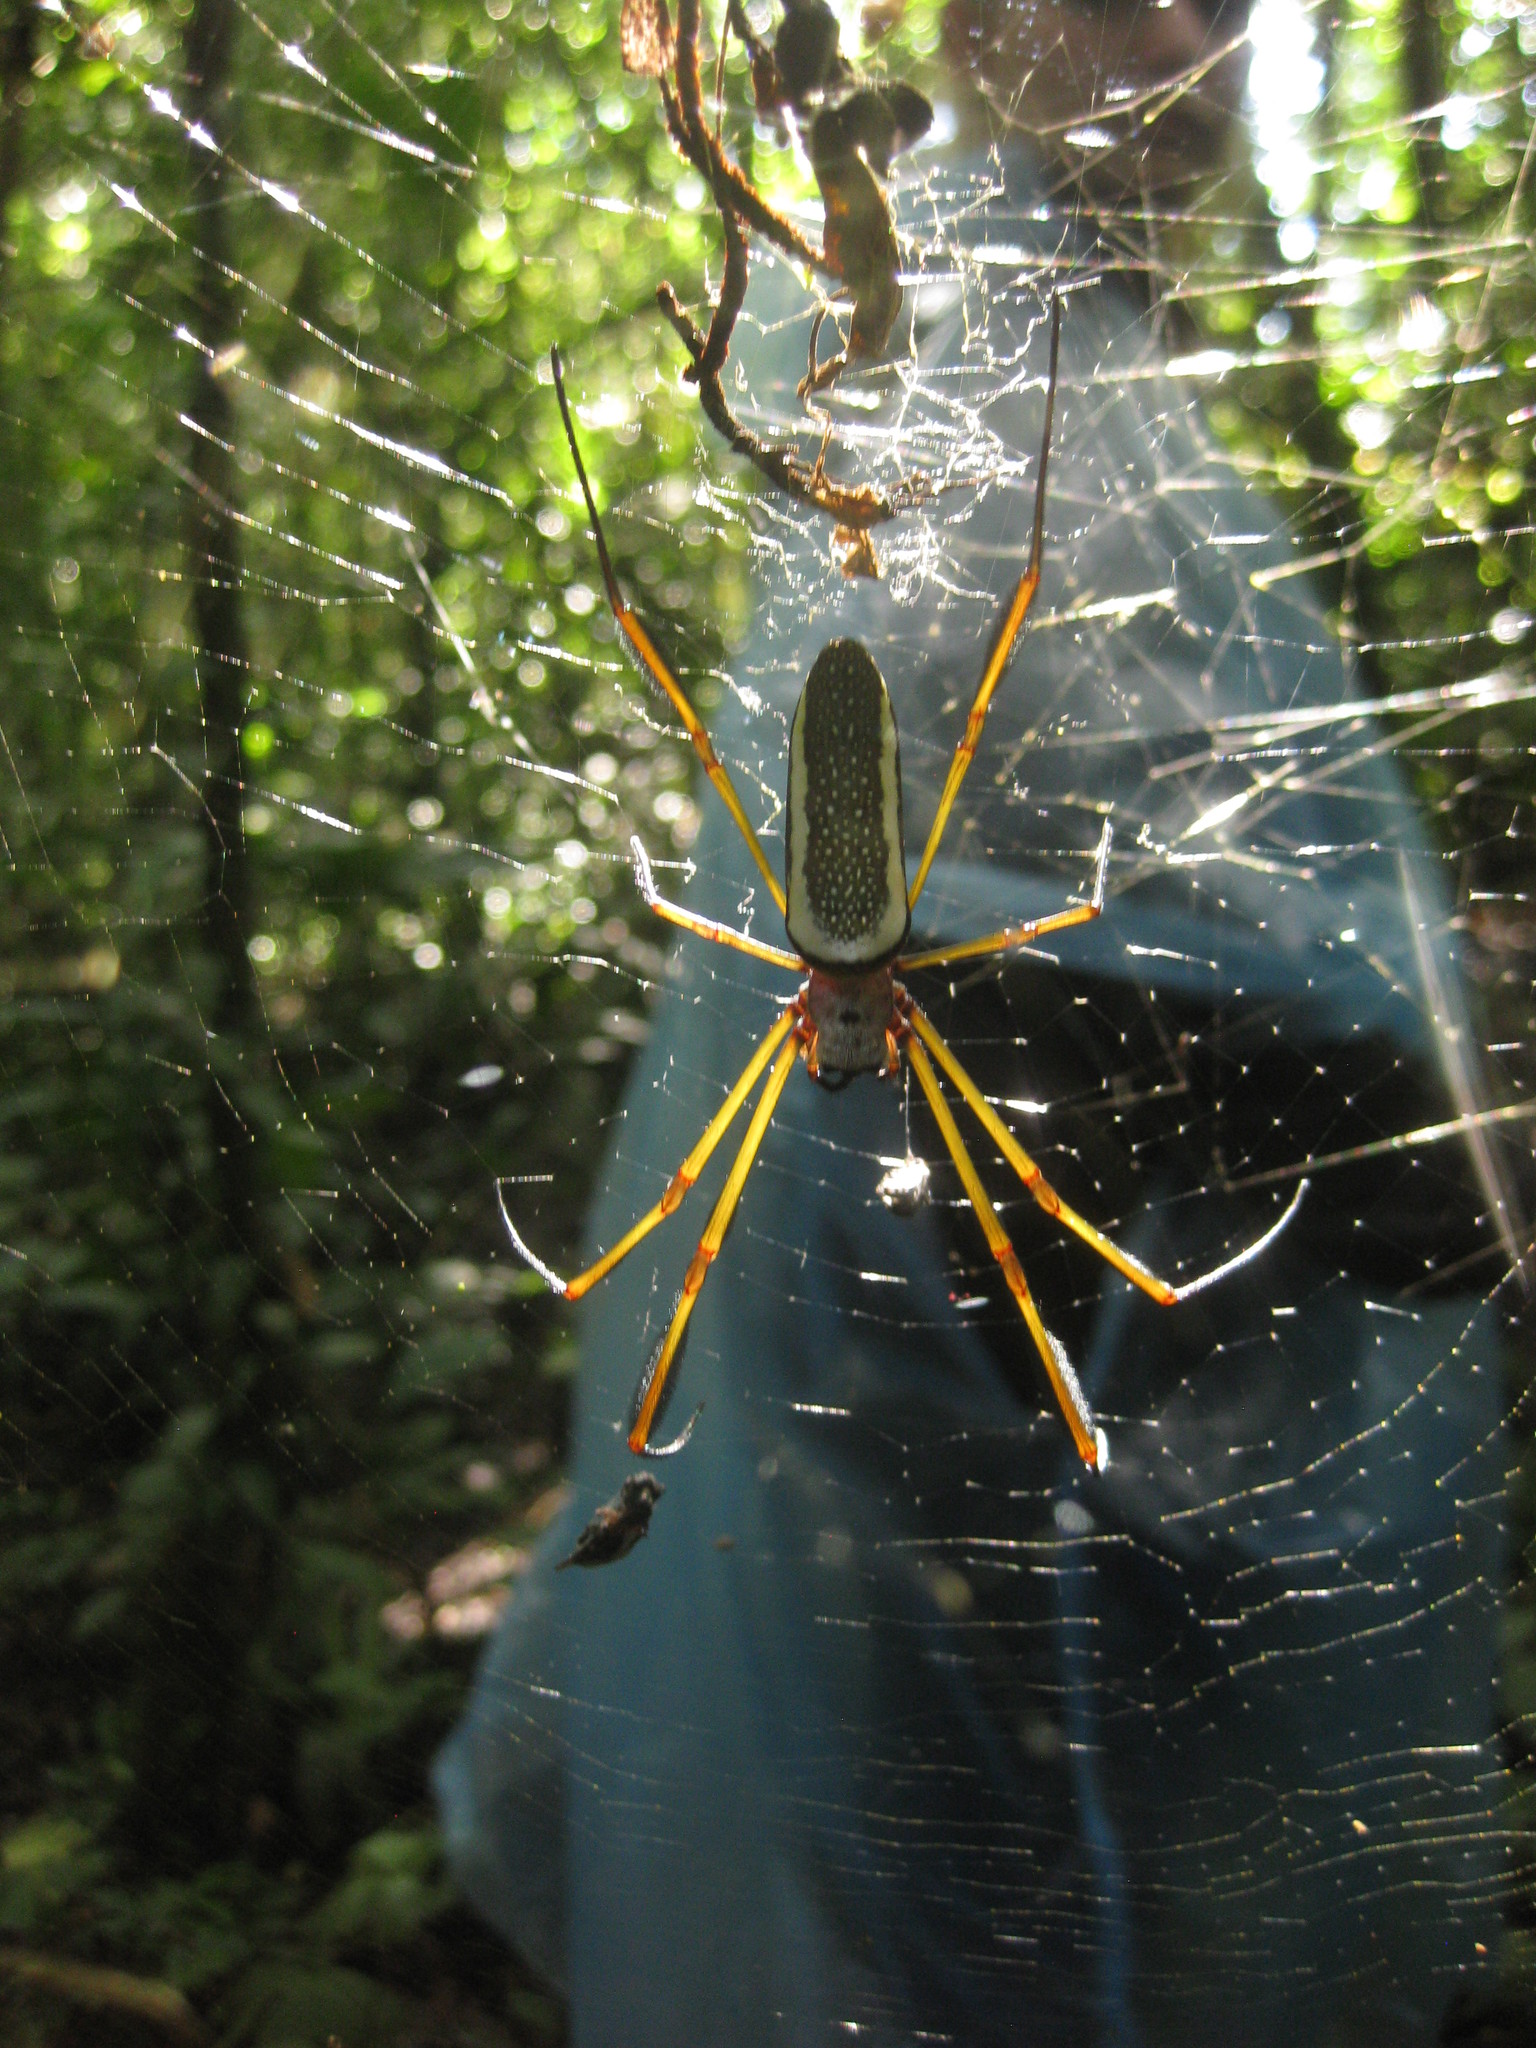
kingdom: Animalia
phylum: Arthropoda
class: Arachnida
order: Araneae
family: Araneidae
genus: Trichonephila
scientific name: Trichonephila clavipes
